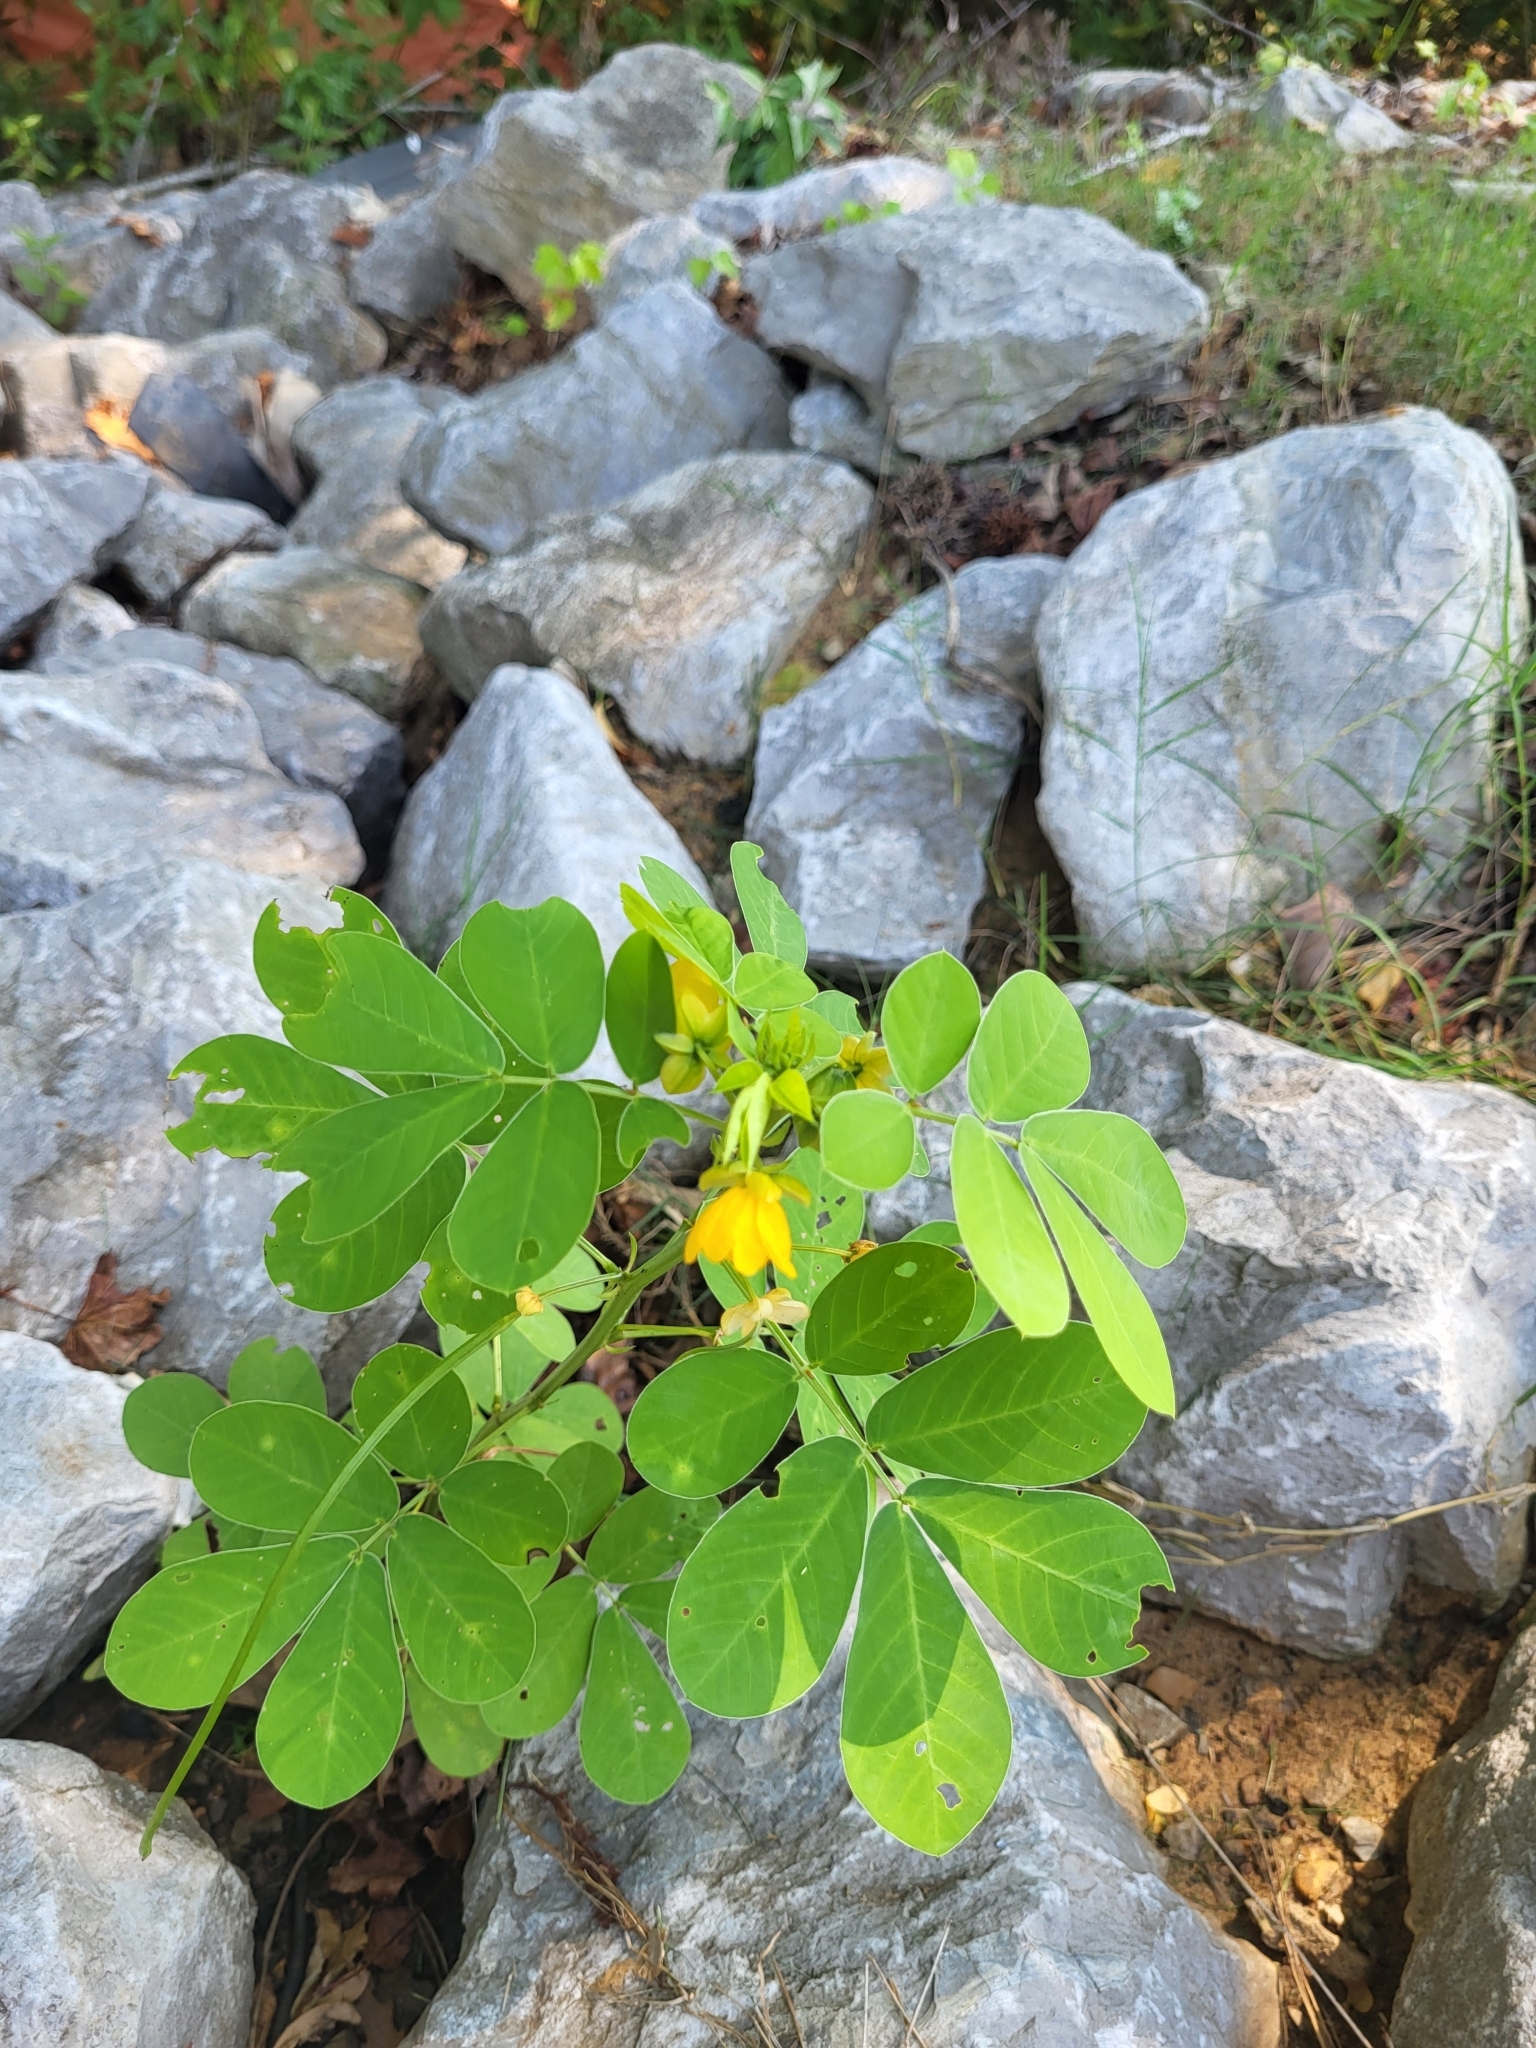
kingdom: Plantae
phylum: Tracheophyta
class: Magnoliopsida
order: Fabales
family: Fabaceae
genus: Senna
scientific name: Senna obtusifolia
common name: Java-bean
